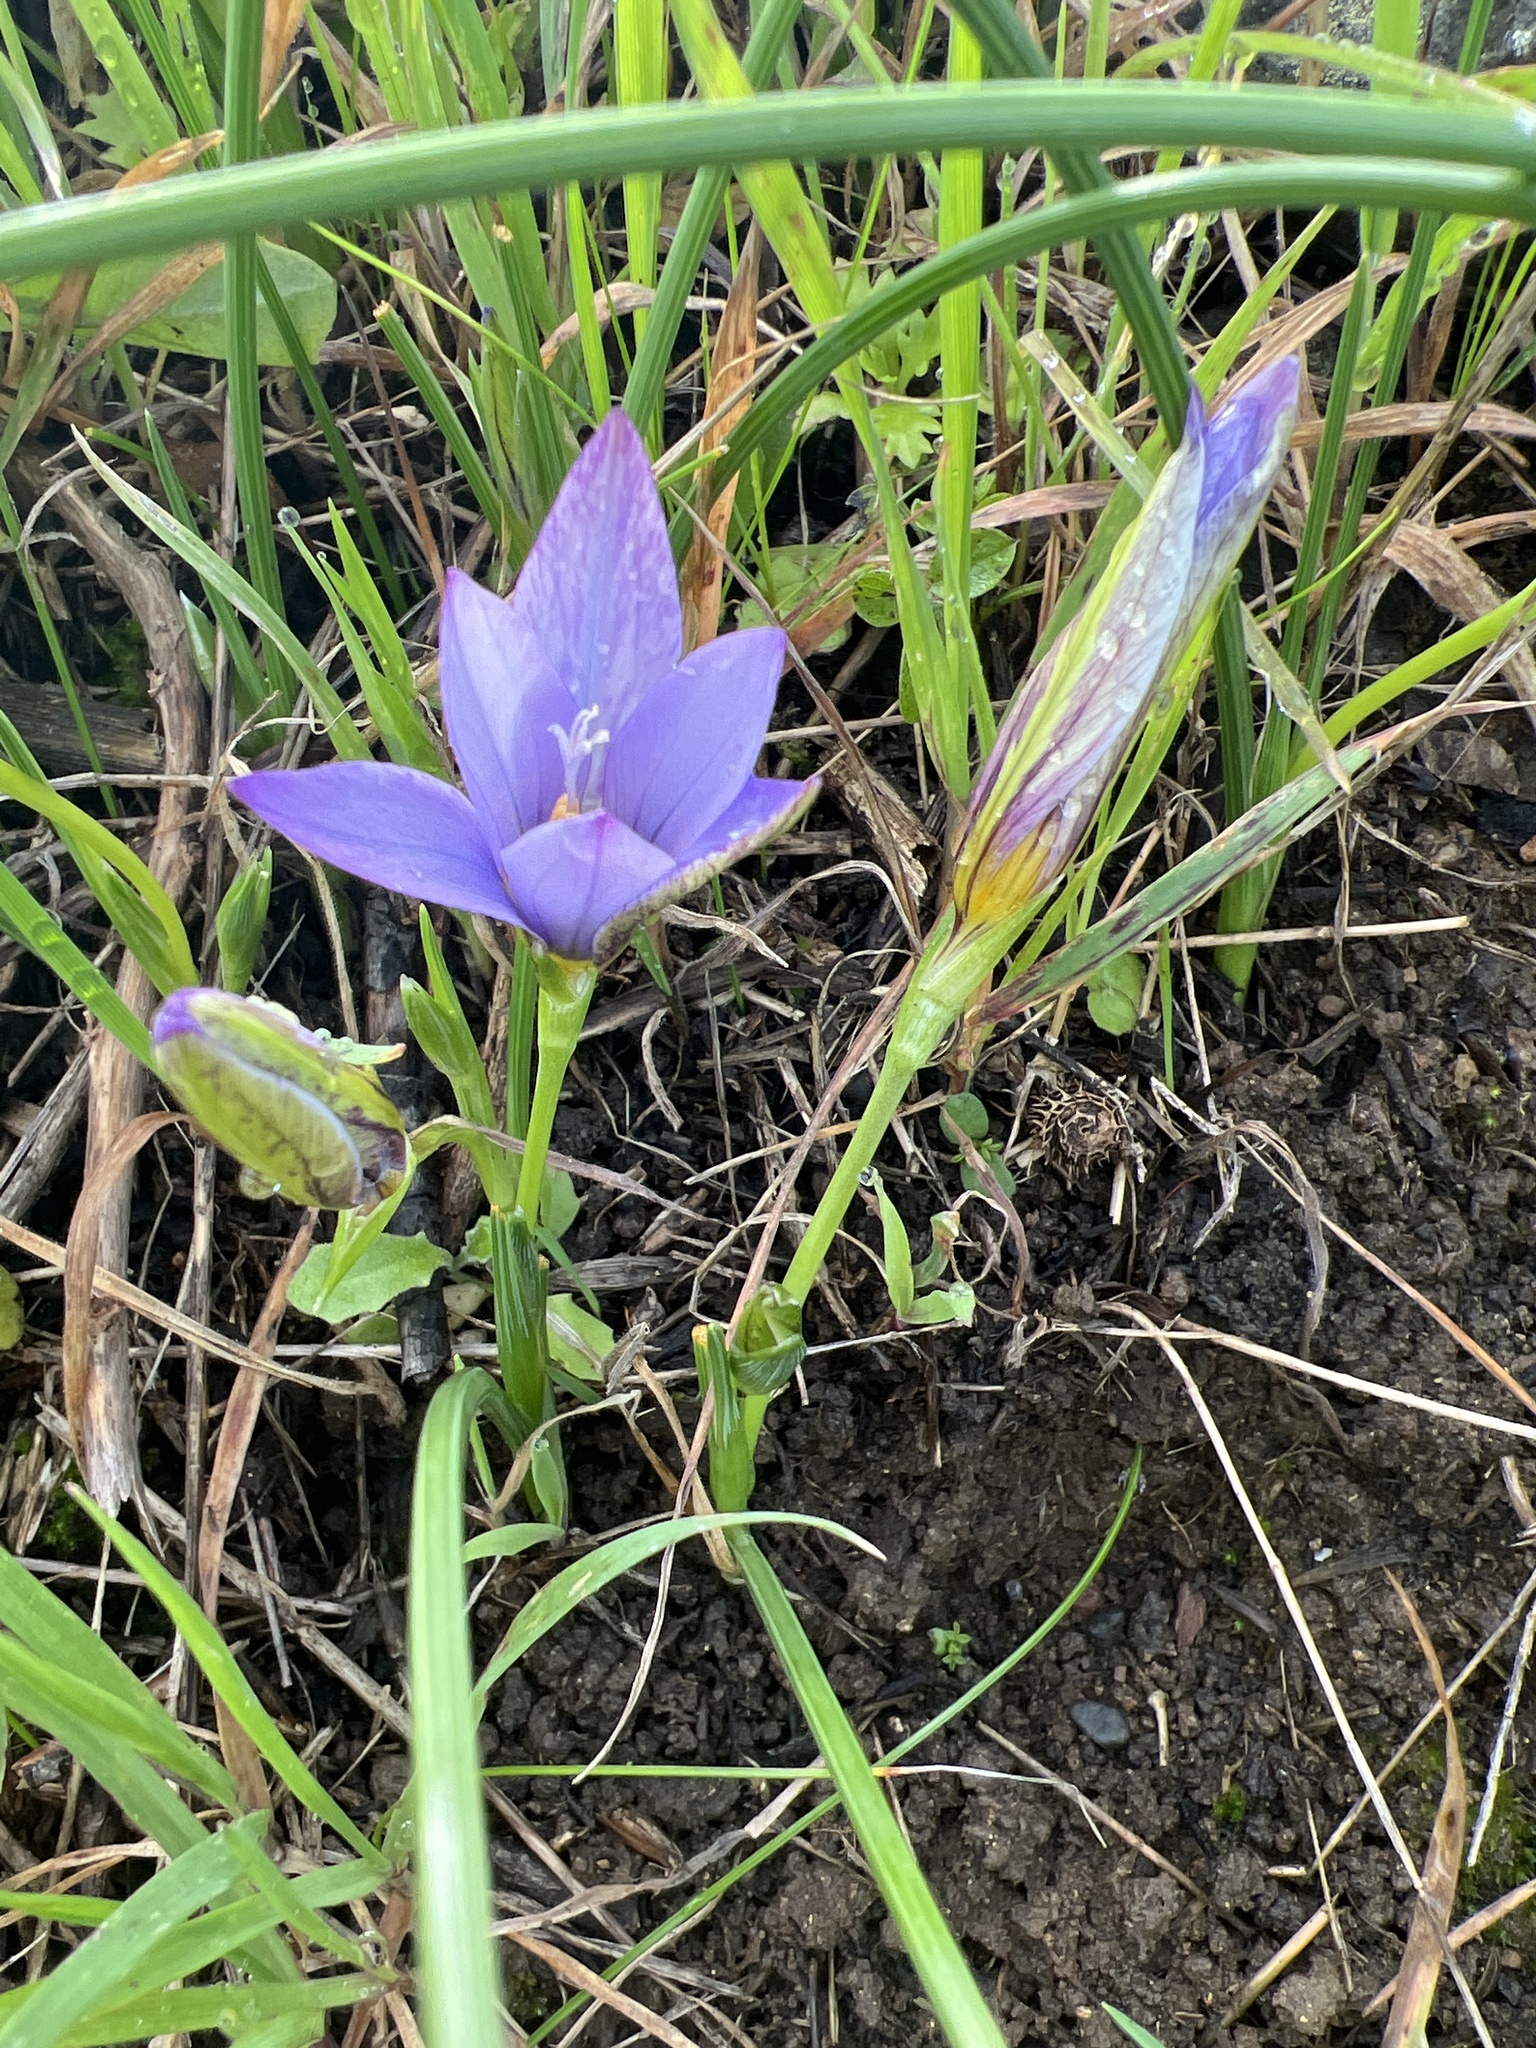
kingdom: Plantae
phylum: Tracheophyta
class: Liliopsida
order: Asparagales
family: Iridaceae
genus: Romulea
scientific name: Romulea columnae
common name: Sand-crocus
